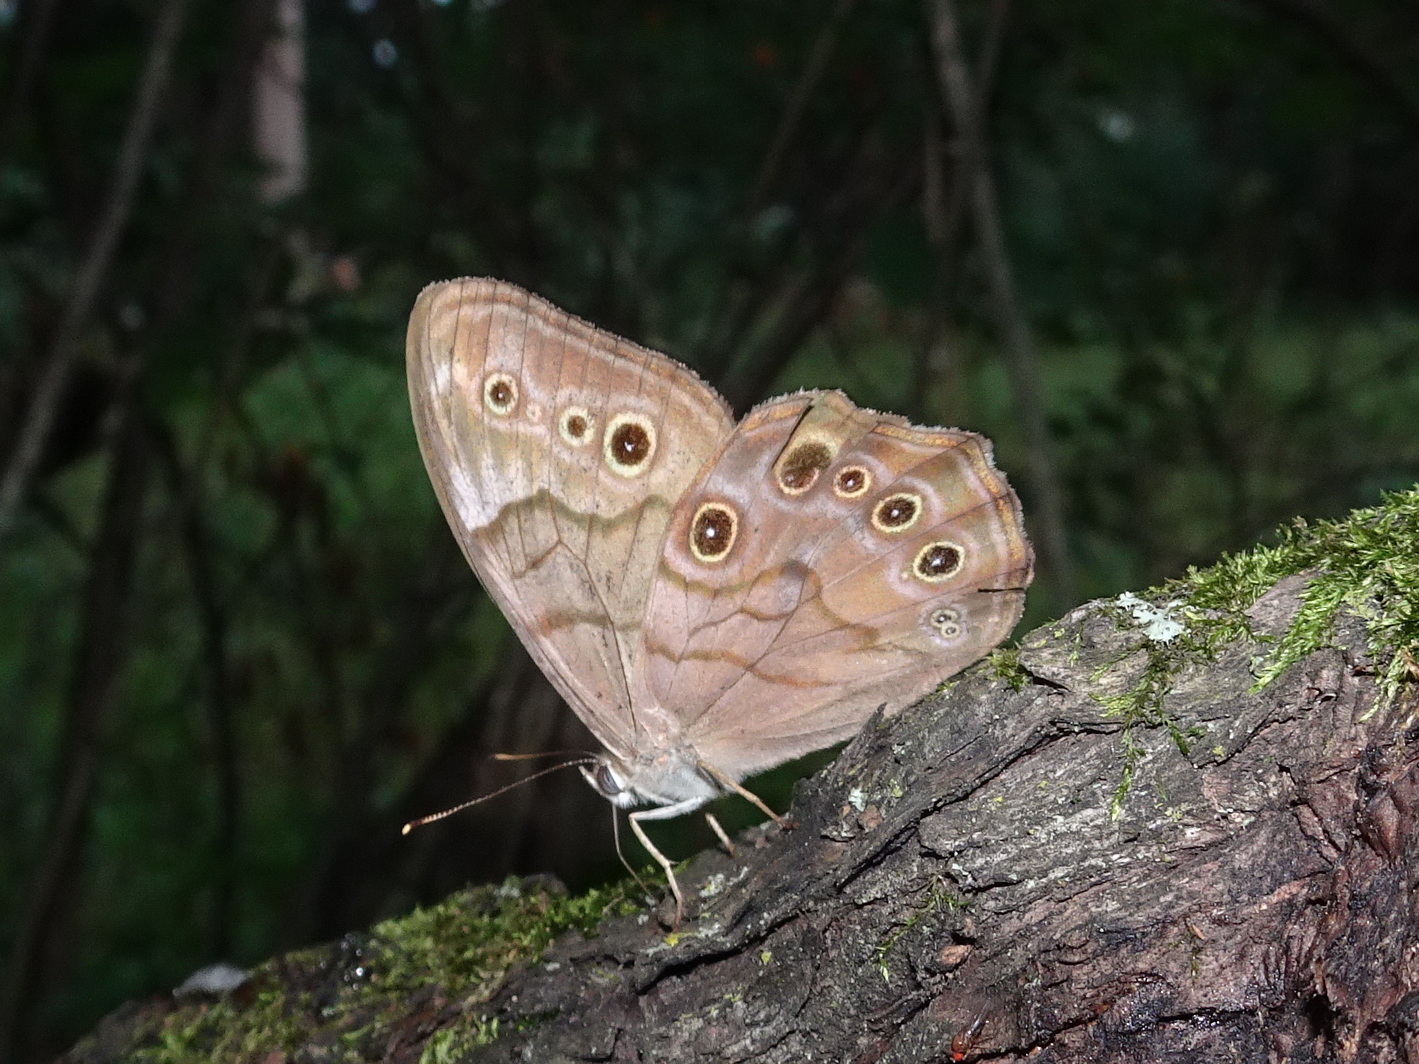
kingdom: Animalia
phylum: Arthropoda
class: Insecta
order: Lepidoptera
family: Nymphalidae
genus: Lethe
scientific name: Lethe anthedon
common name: Northern pearly-eye
